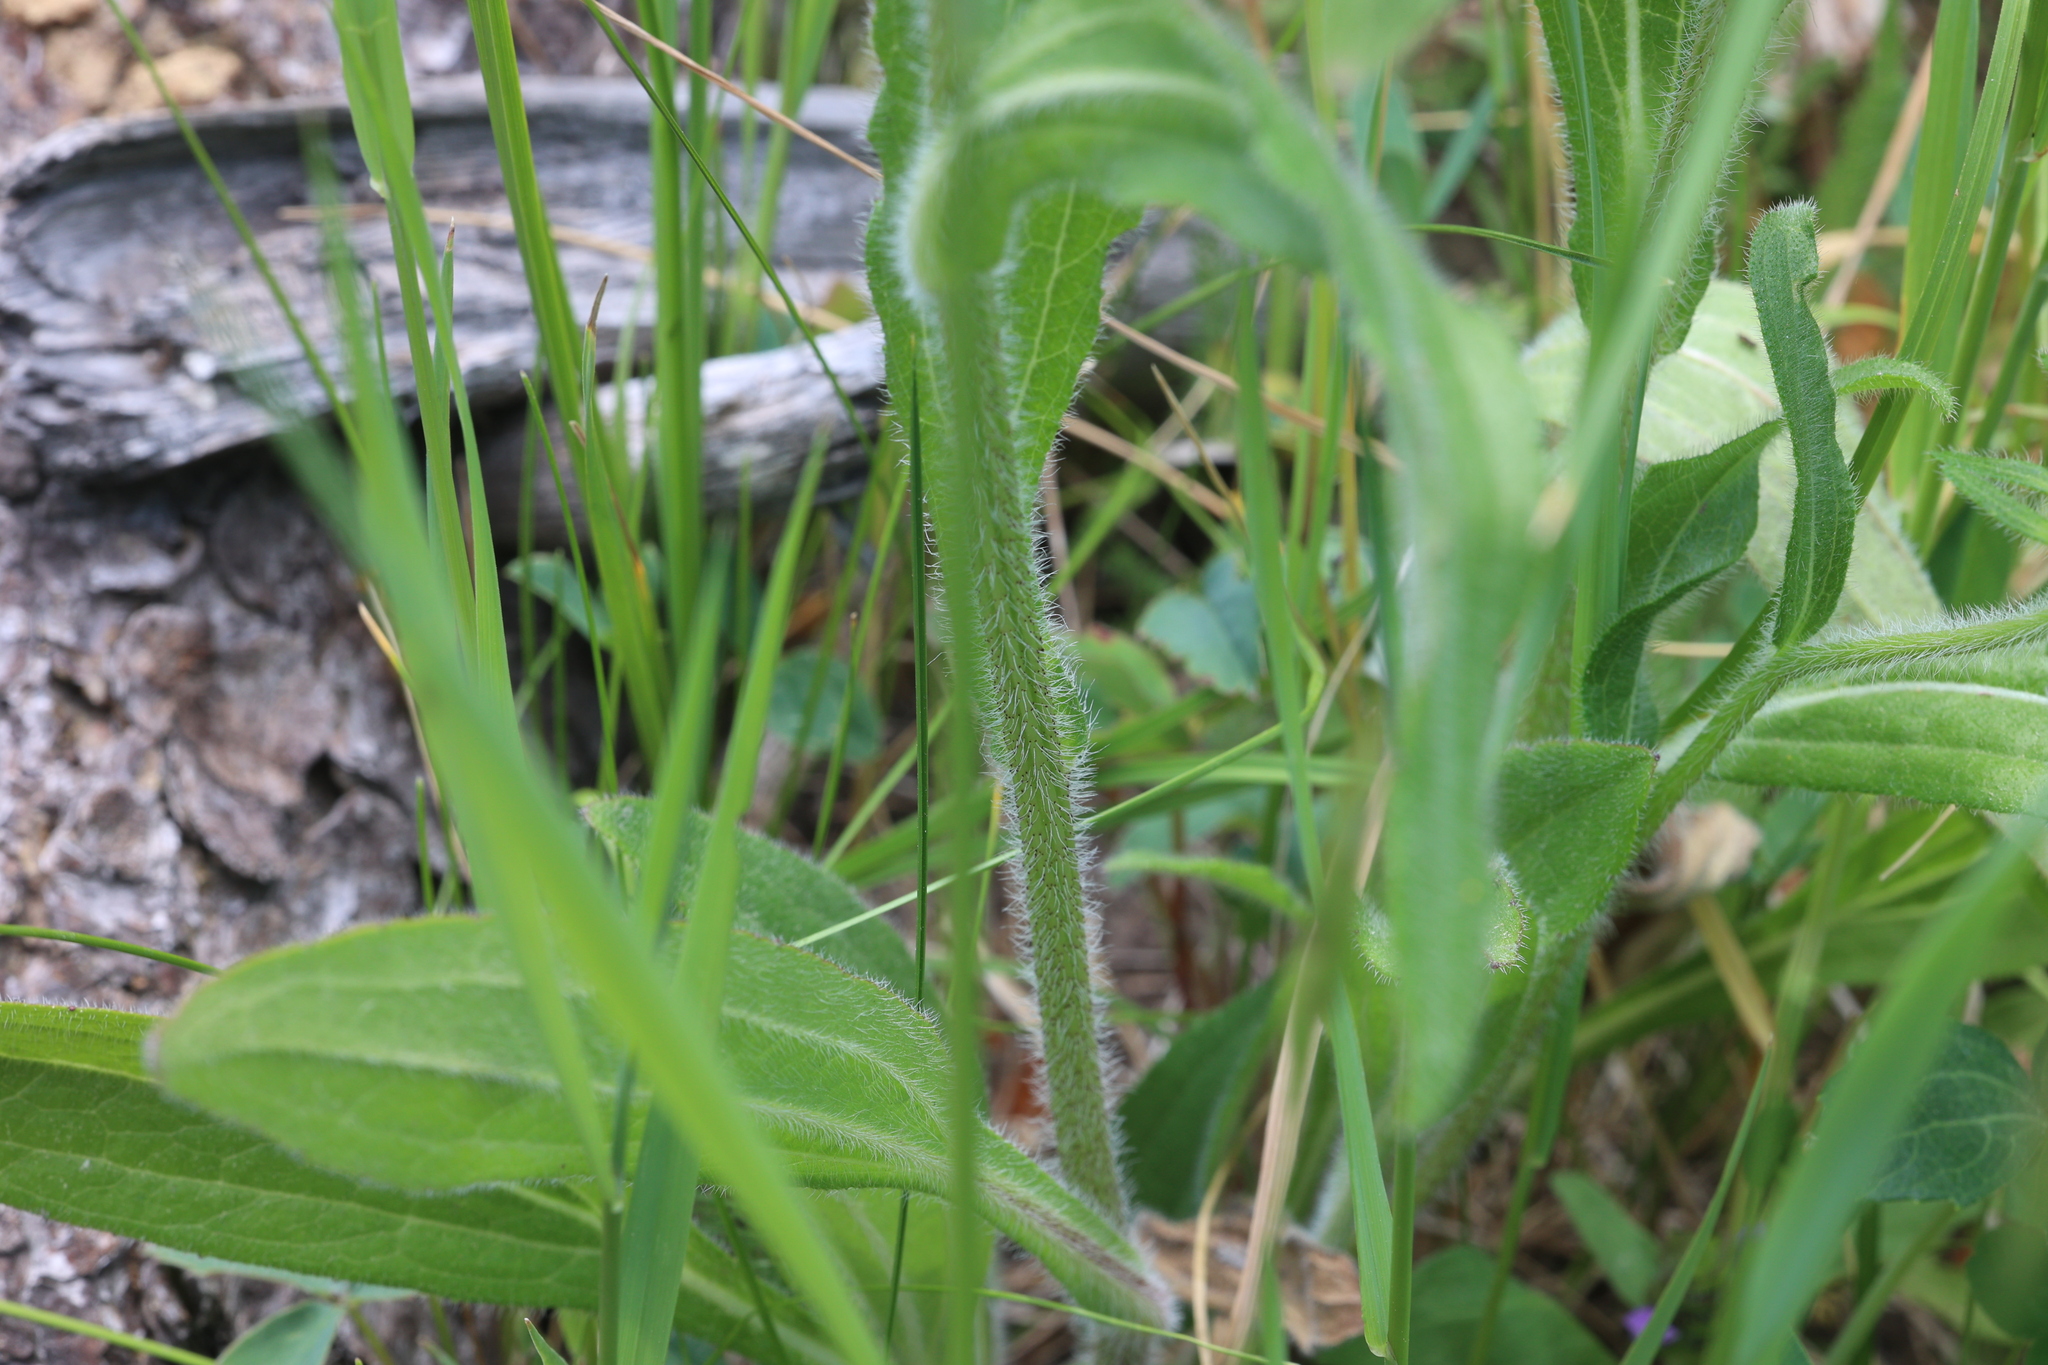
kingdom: Plantae
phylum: Tracheophyta
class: Magnoliopsida
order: Asterales
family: Asteraceae
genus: Rudbeckia
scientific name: Rudbeckia hirta
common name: Black-eyed-susan
